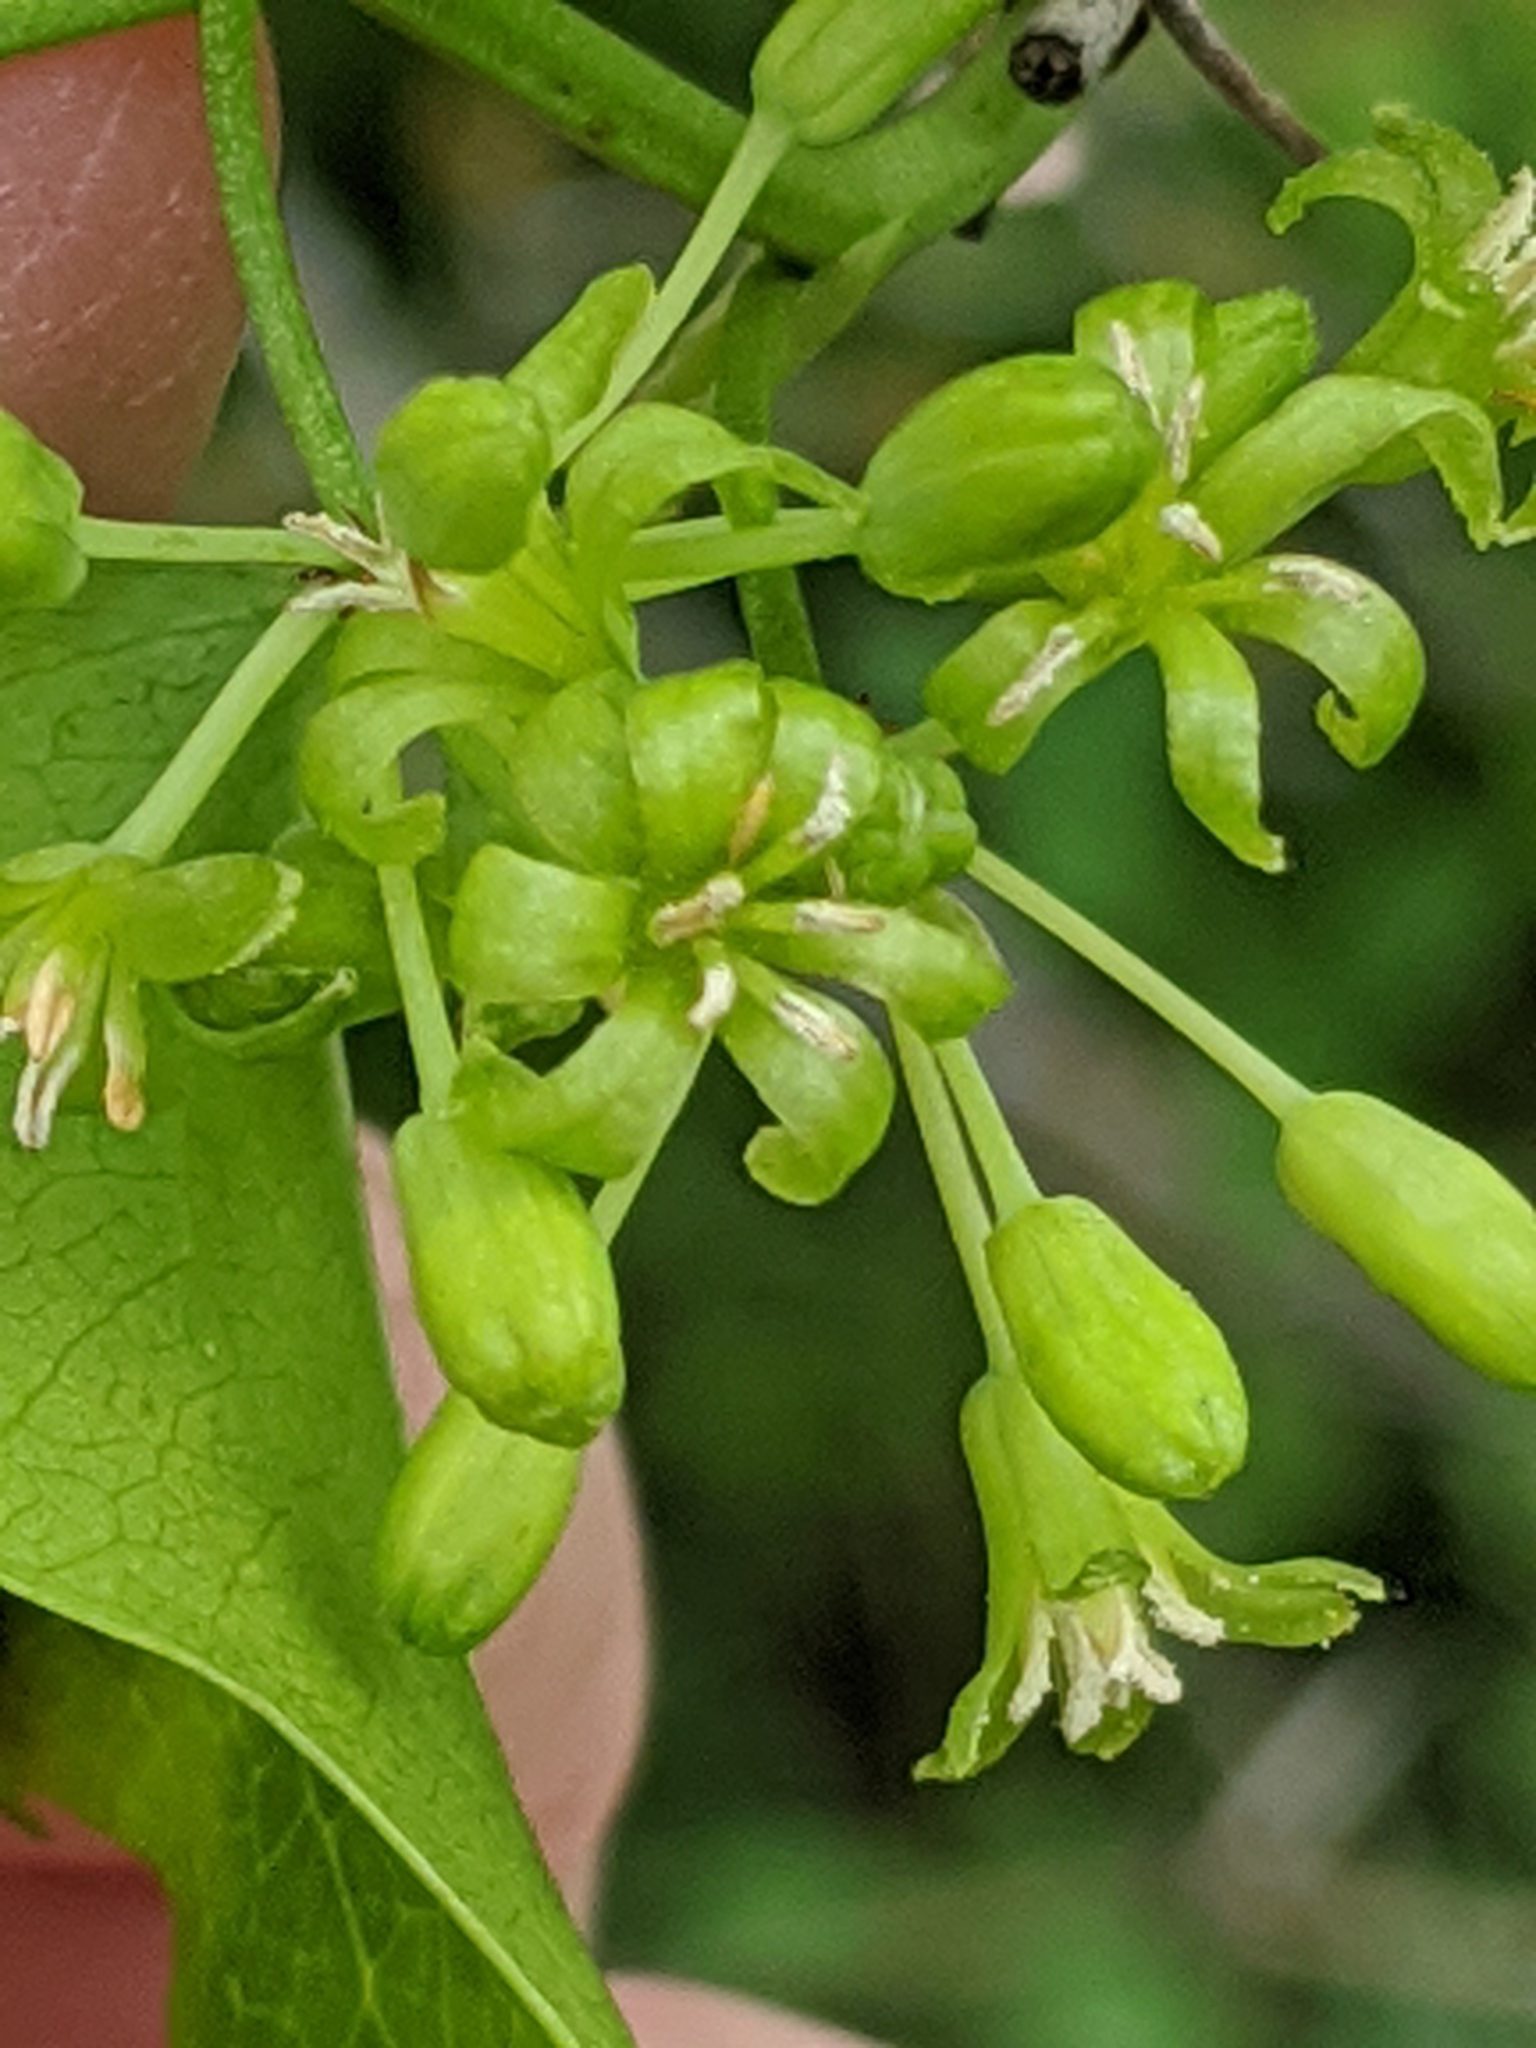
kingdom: Plantae
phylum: Tracheophyta
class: Liliopsida
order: Liliales
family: Smilacaceae
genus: Smilax
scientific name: Smilax bona-nox
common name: Catbrier
